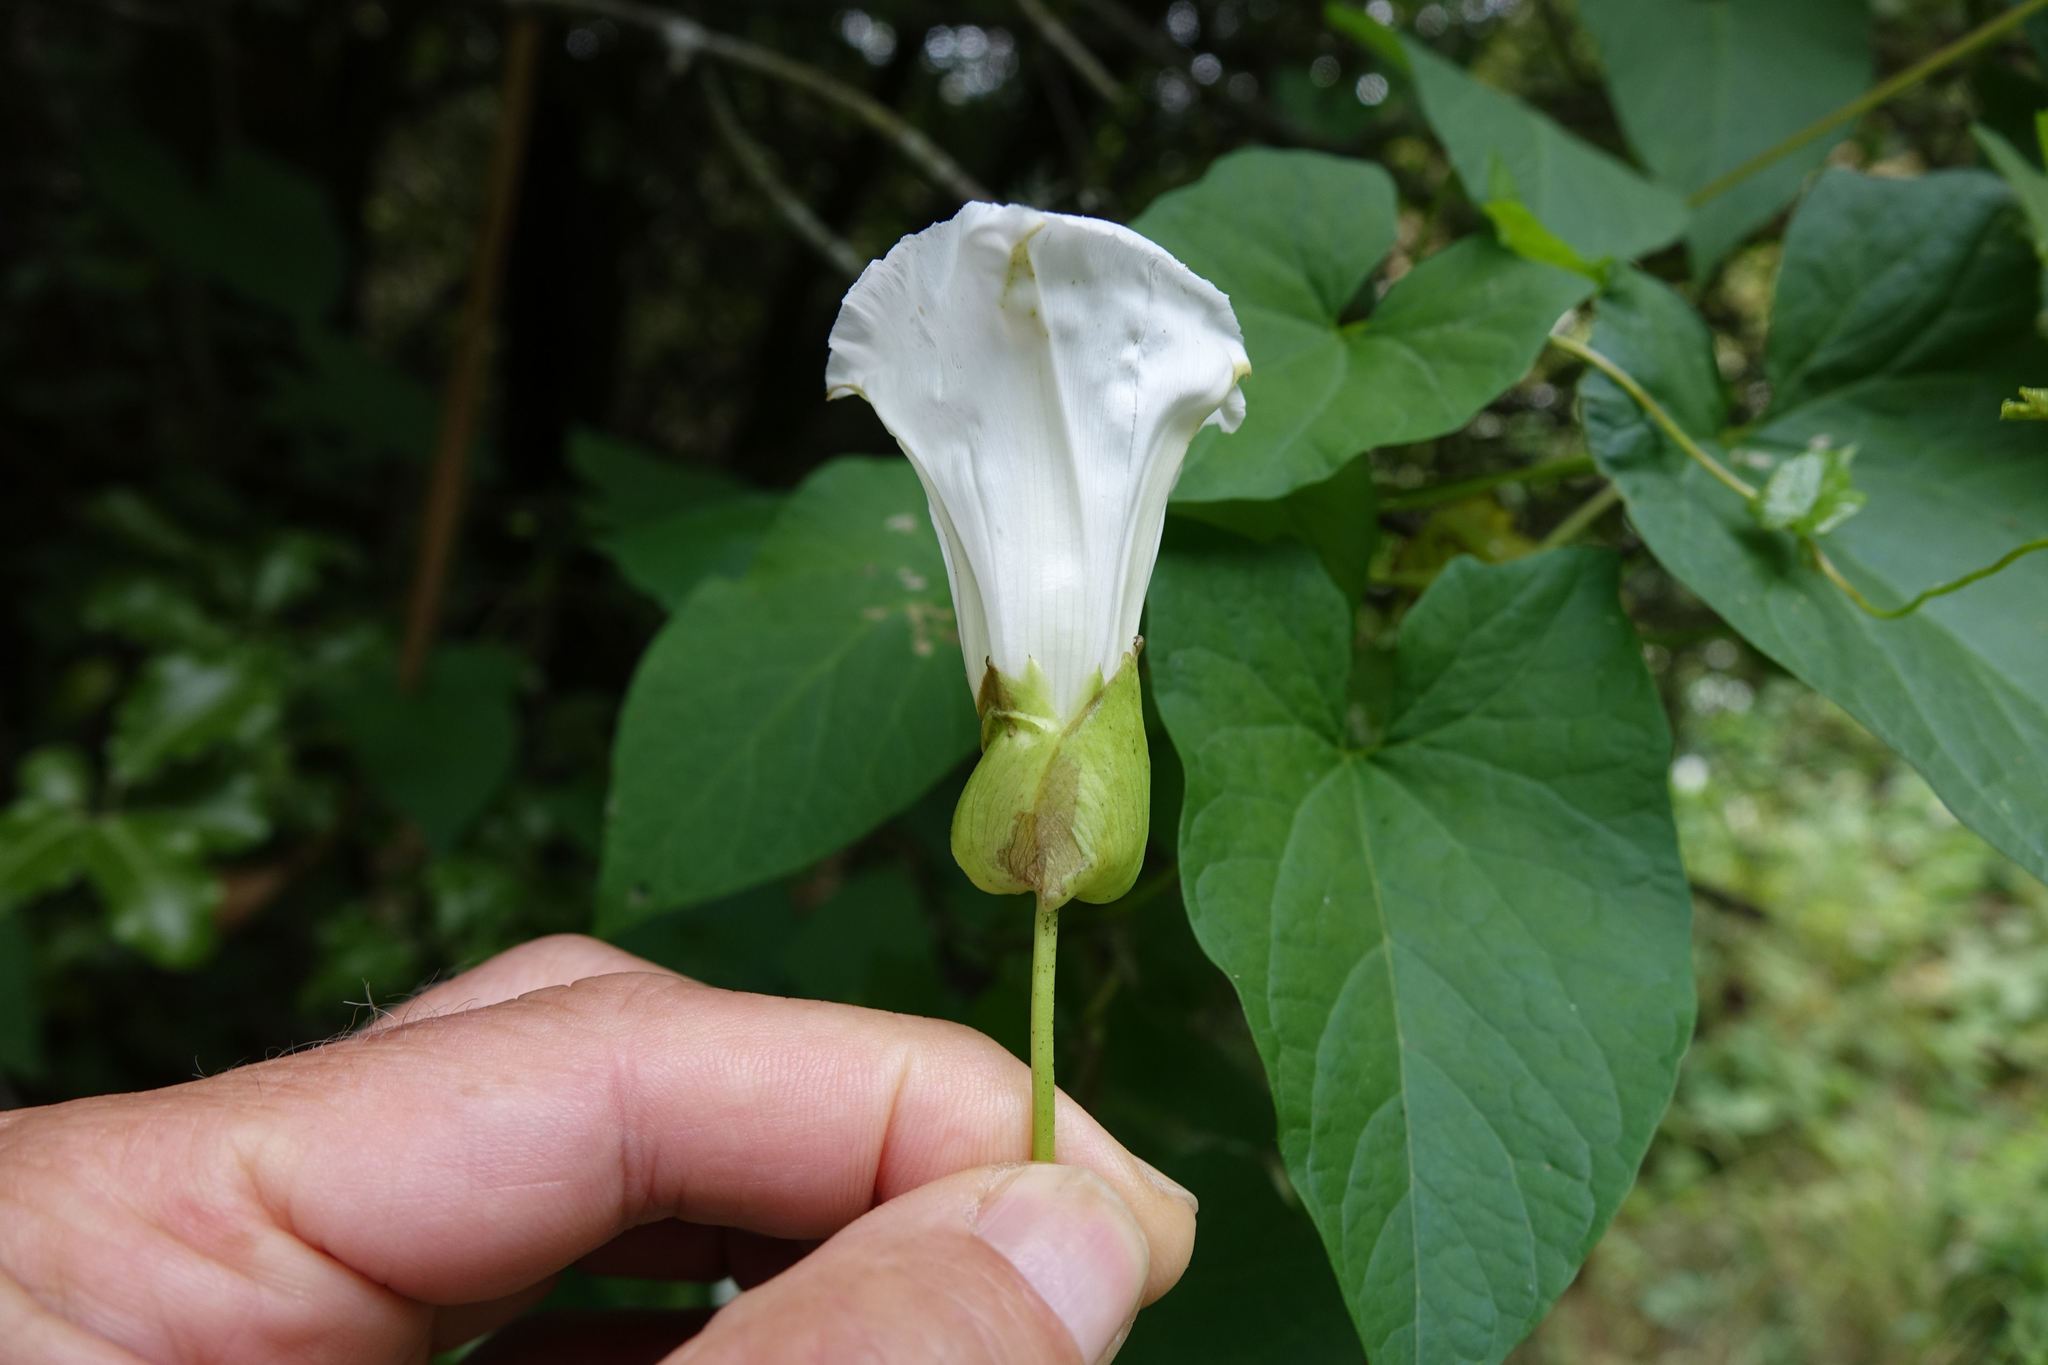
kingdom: Plantae
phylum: Tracheophyta
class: Magnoliopsida
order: Solanales
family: Convolvulaceae
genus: Calystegia
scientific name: Calystegia silvatica
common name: Large bindweed
